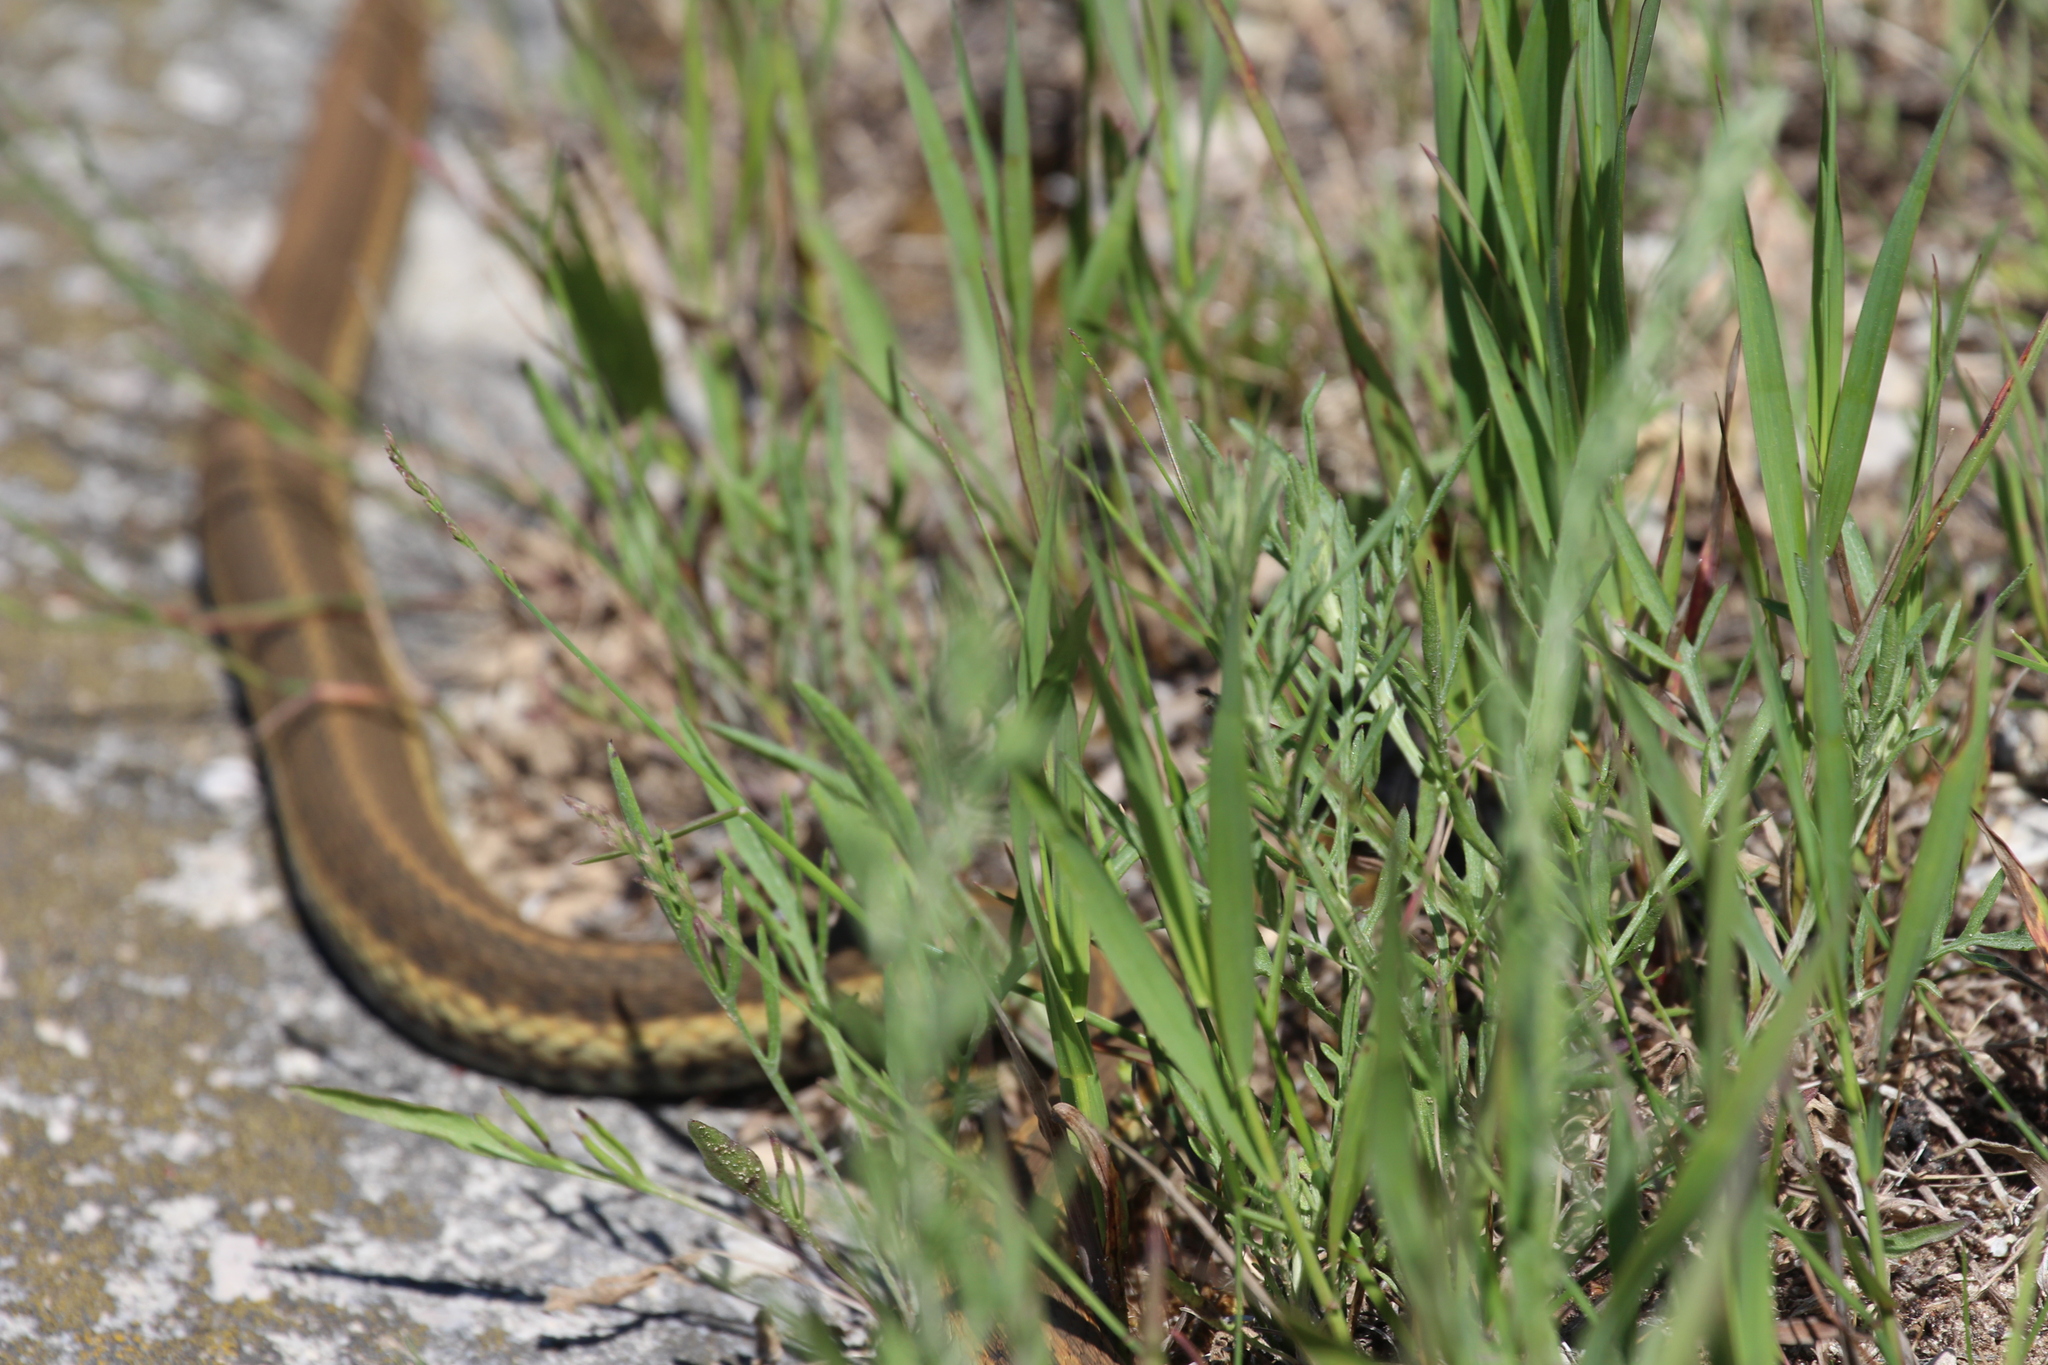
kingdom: Animalia
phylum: Chordata
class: Squamata
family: Colubridae
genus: Thamnophis
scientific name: Thamnophis sirtalis
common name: Common garter snake
